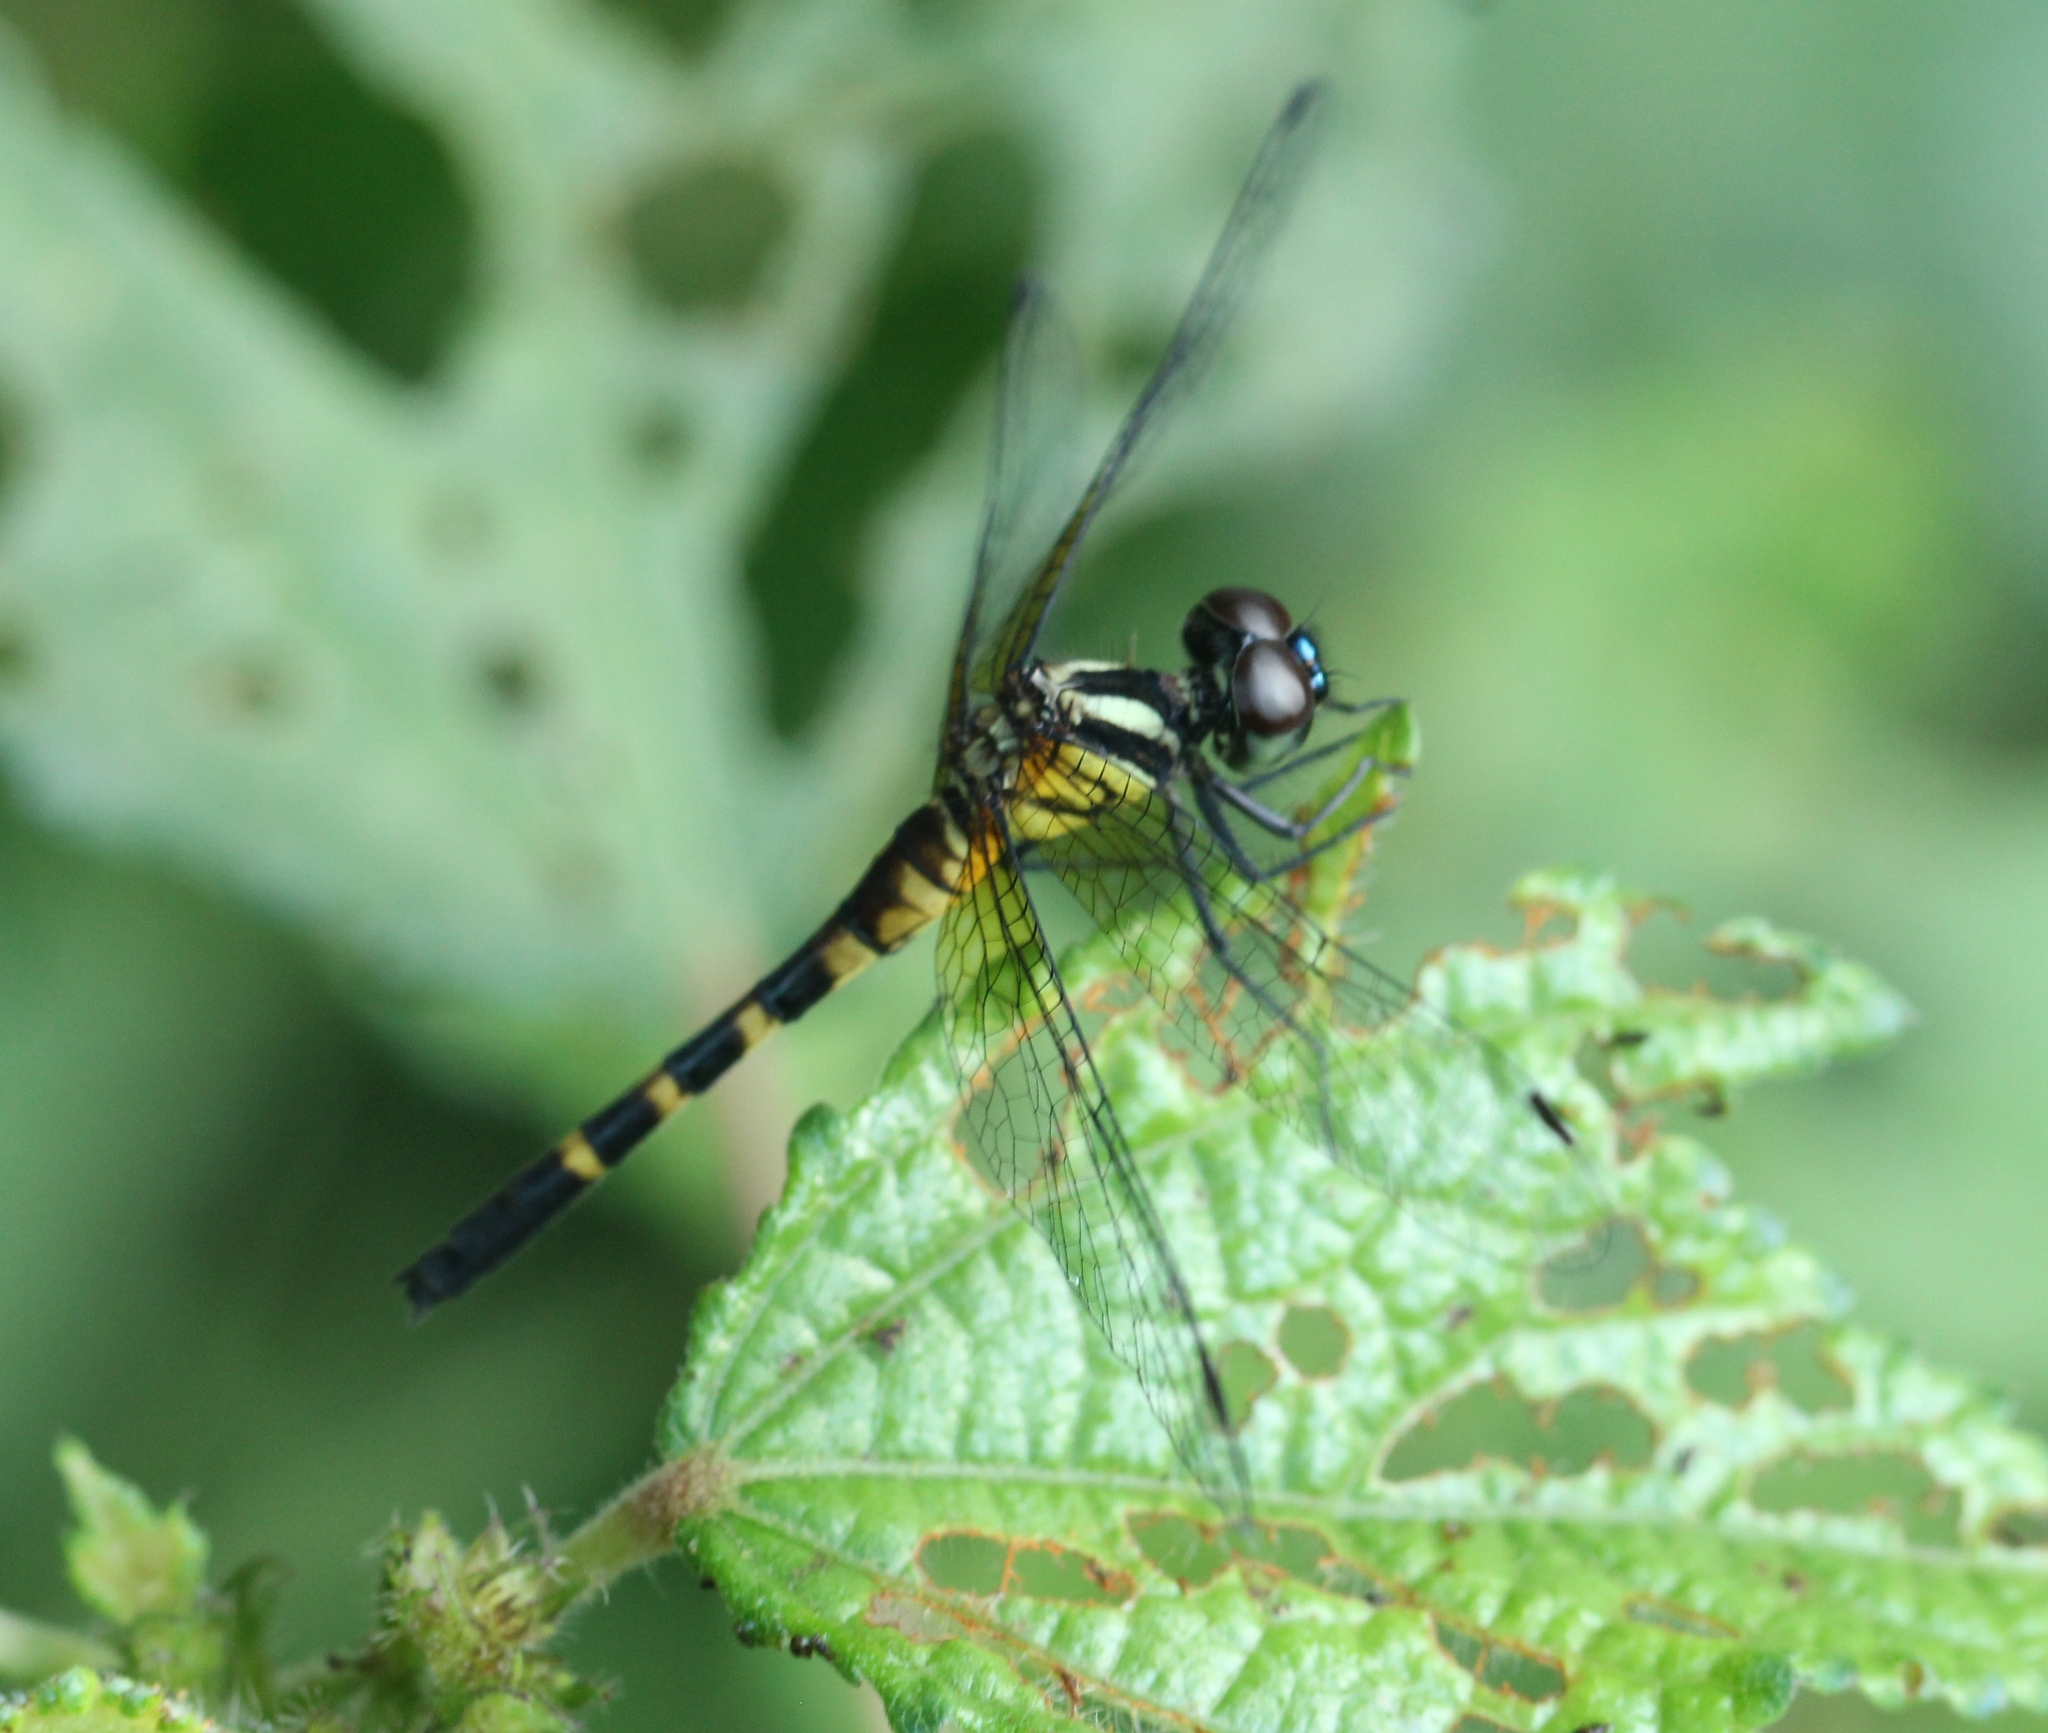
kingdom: Animalia
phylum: Arthropoda
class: Insecta
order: Odonata
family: Libellulidae
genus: Tetrathemis
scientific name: Tetrathemis platyptera
